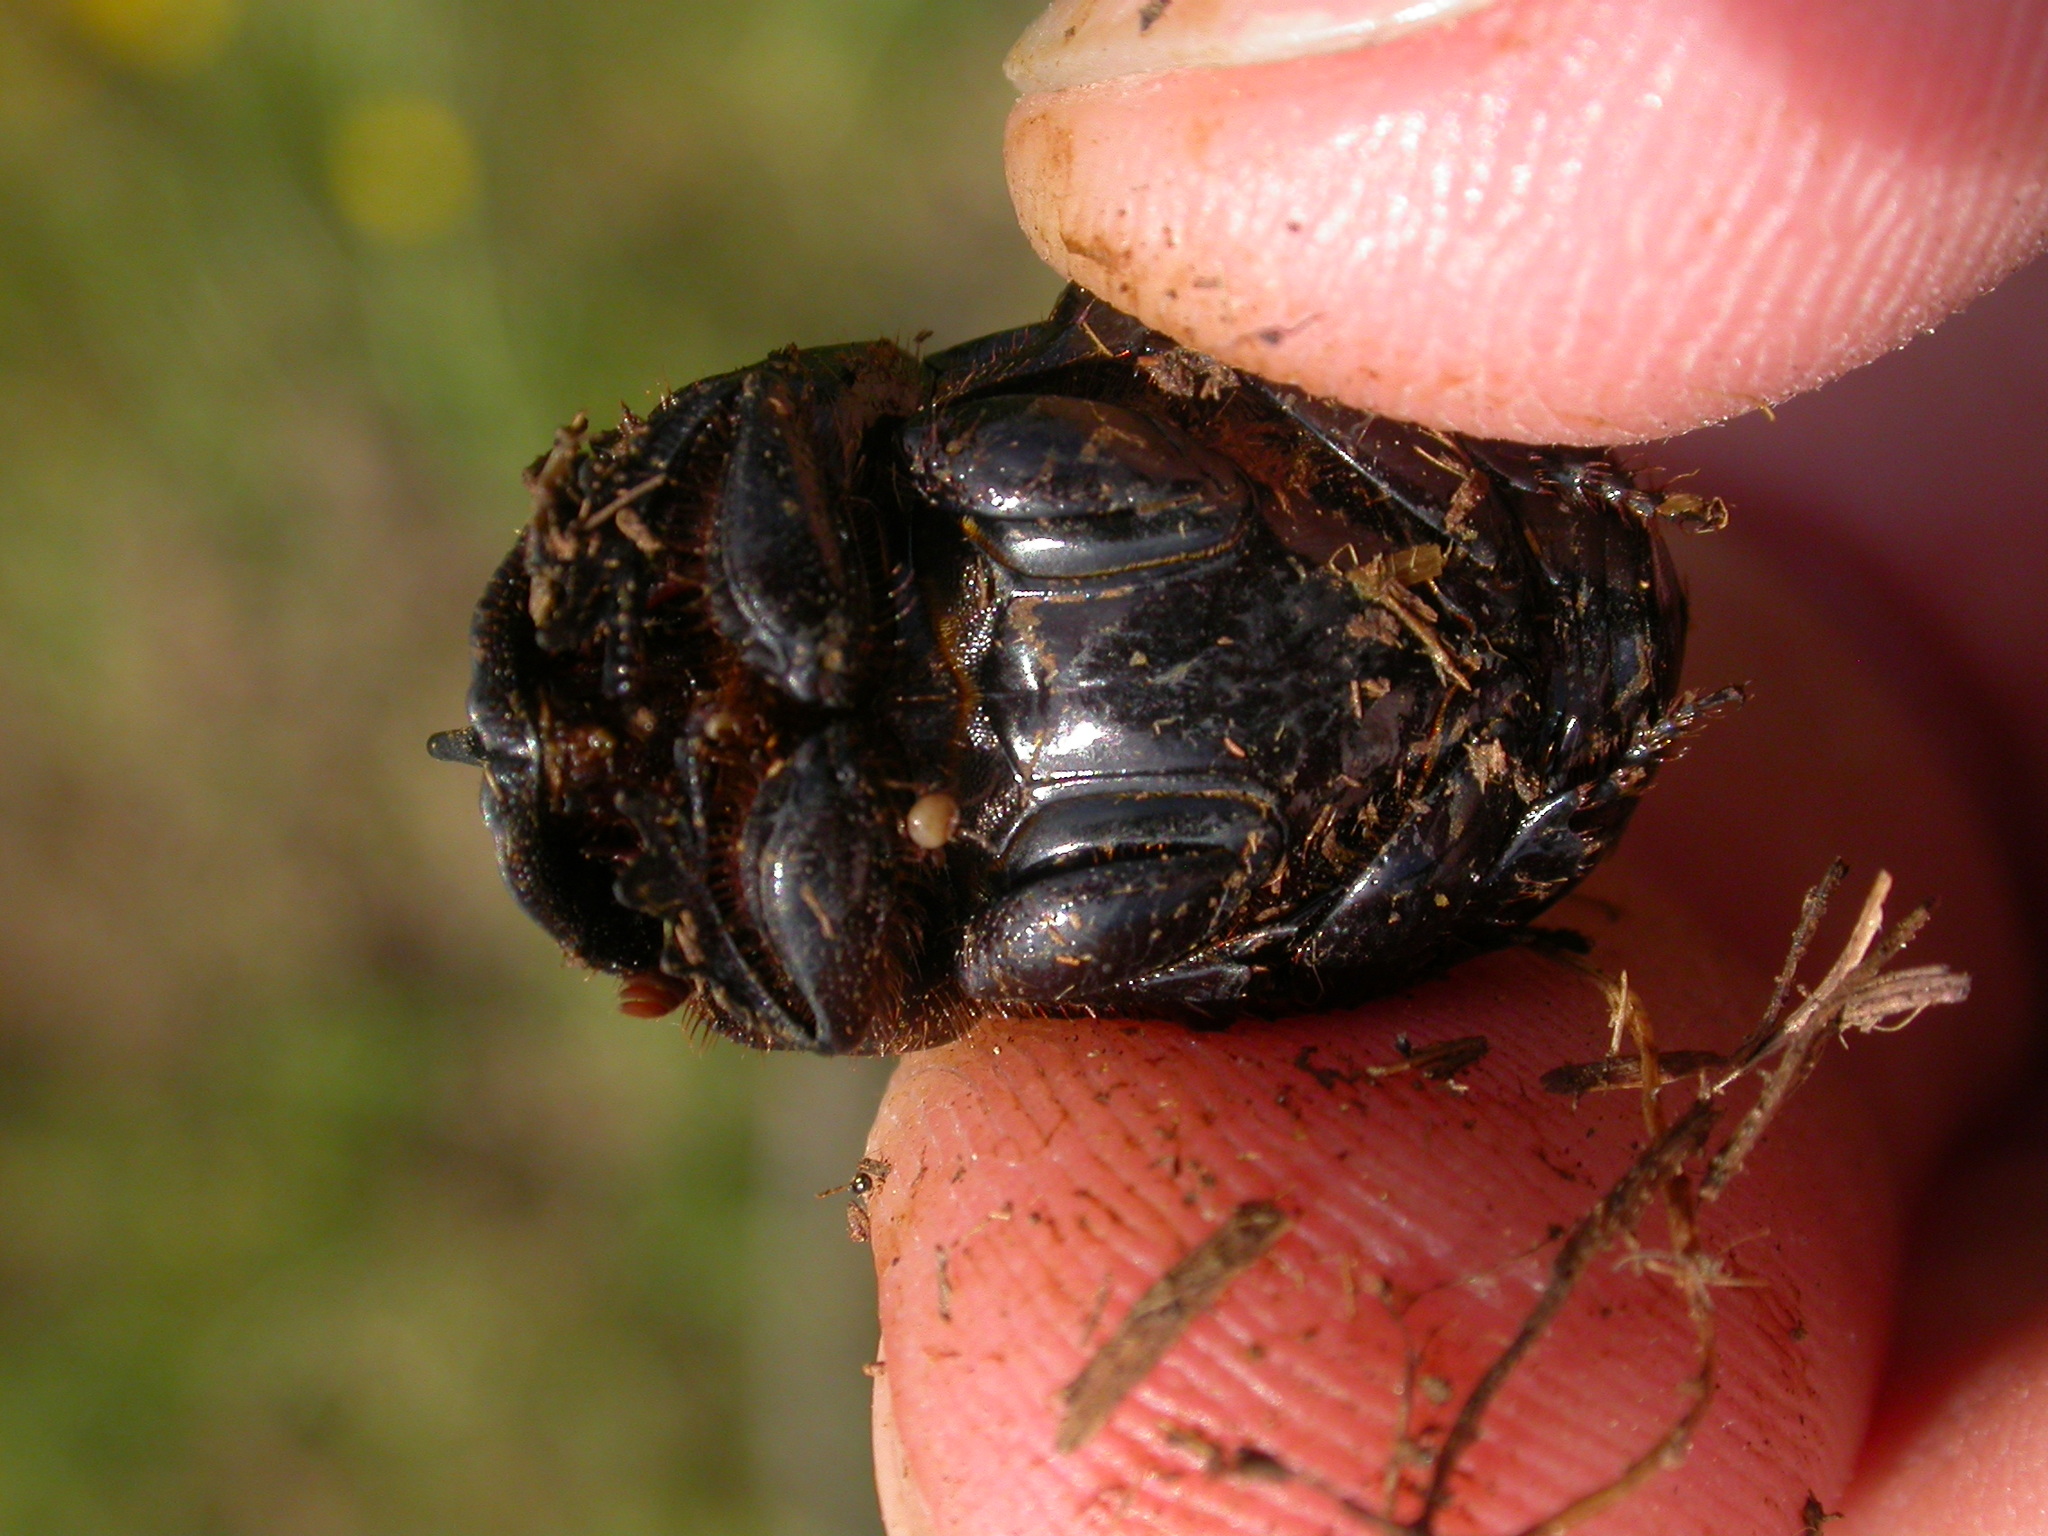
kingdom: Animalia
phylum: Arthropoda
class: Insecta
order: Coleoptera
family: Scarabaeidae
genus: Copris
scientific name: Copris lunaris
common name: Horned dung beetle
